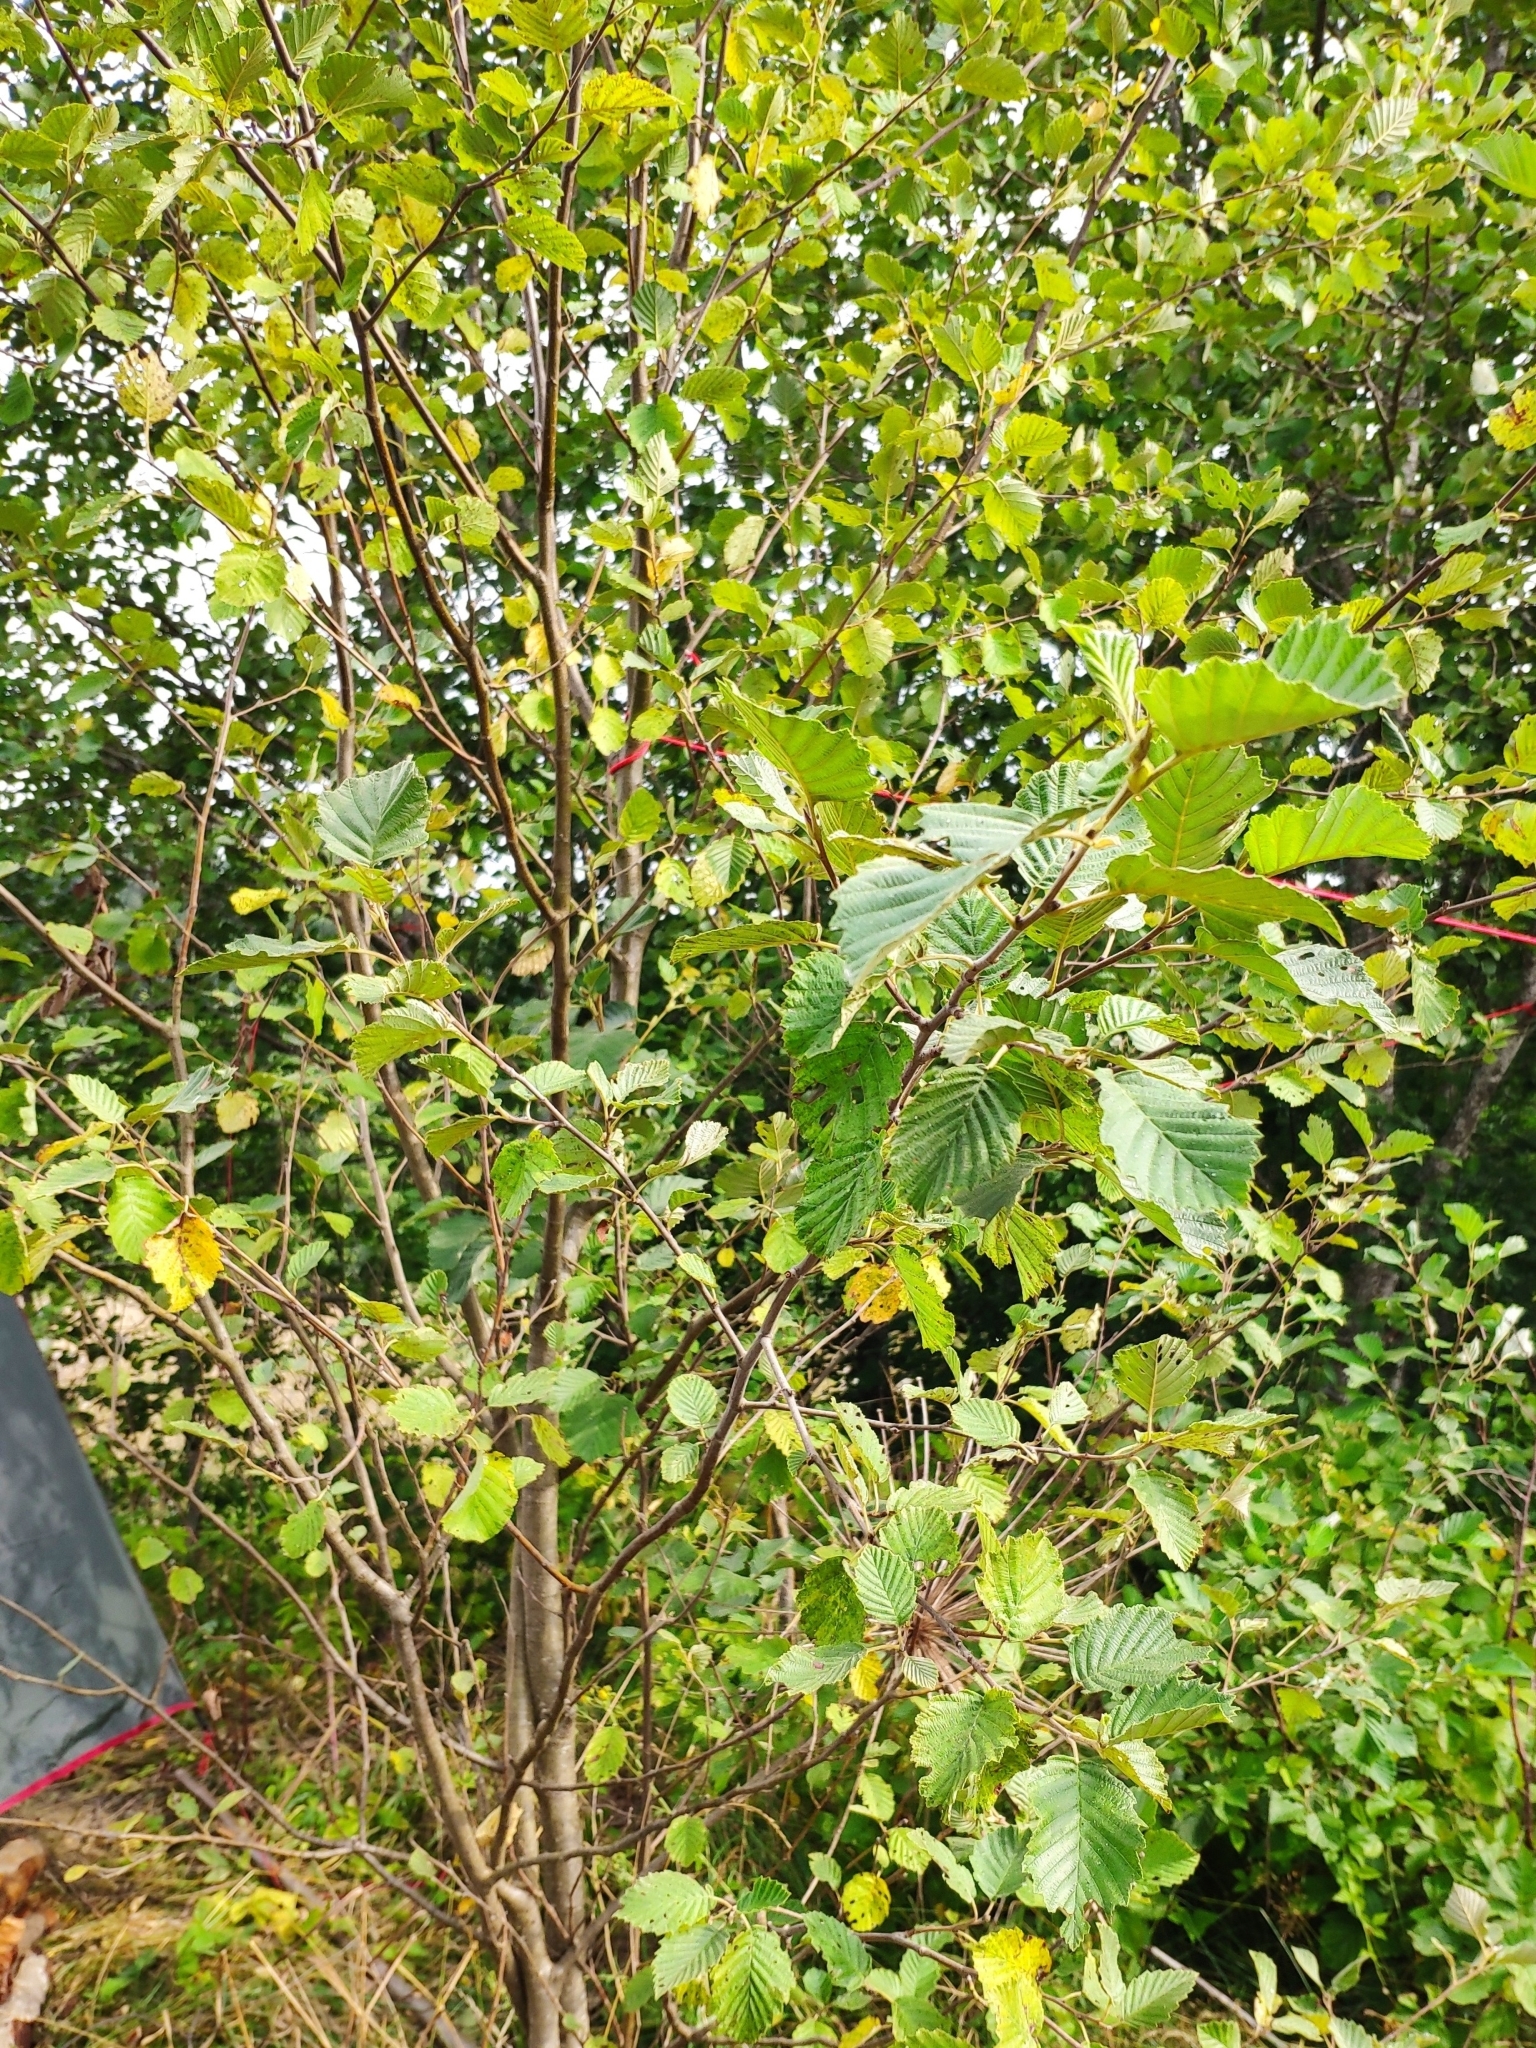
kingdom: Plantae
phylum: Tracheophyta
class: Magnoliopsida
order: Fagales
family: Betulaceae
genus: Alnus
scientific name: Alnus incana
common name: Grey alder
